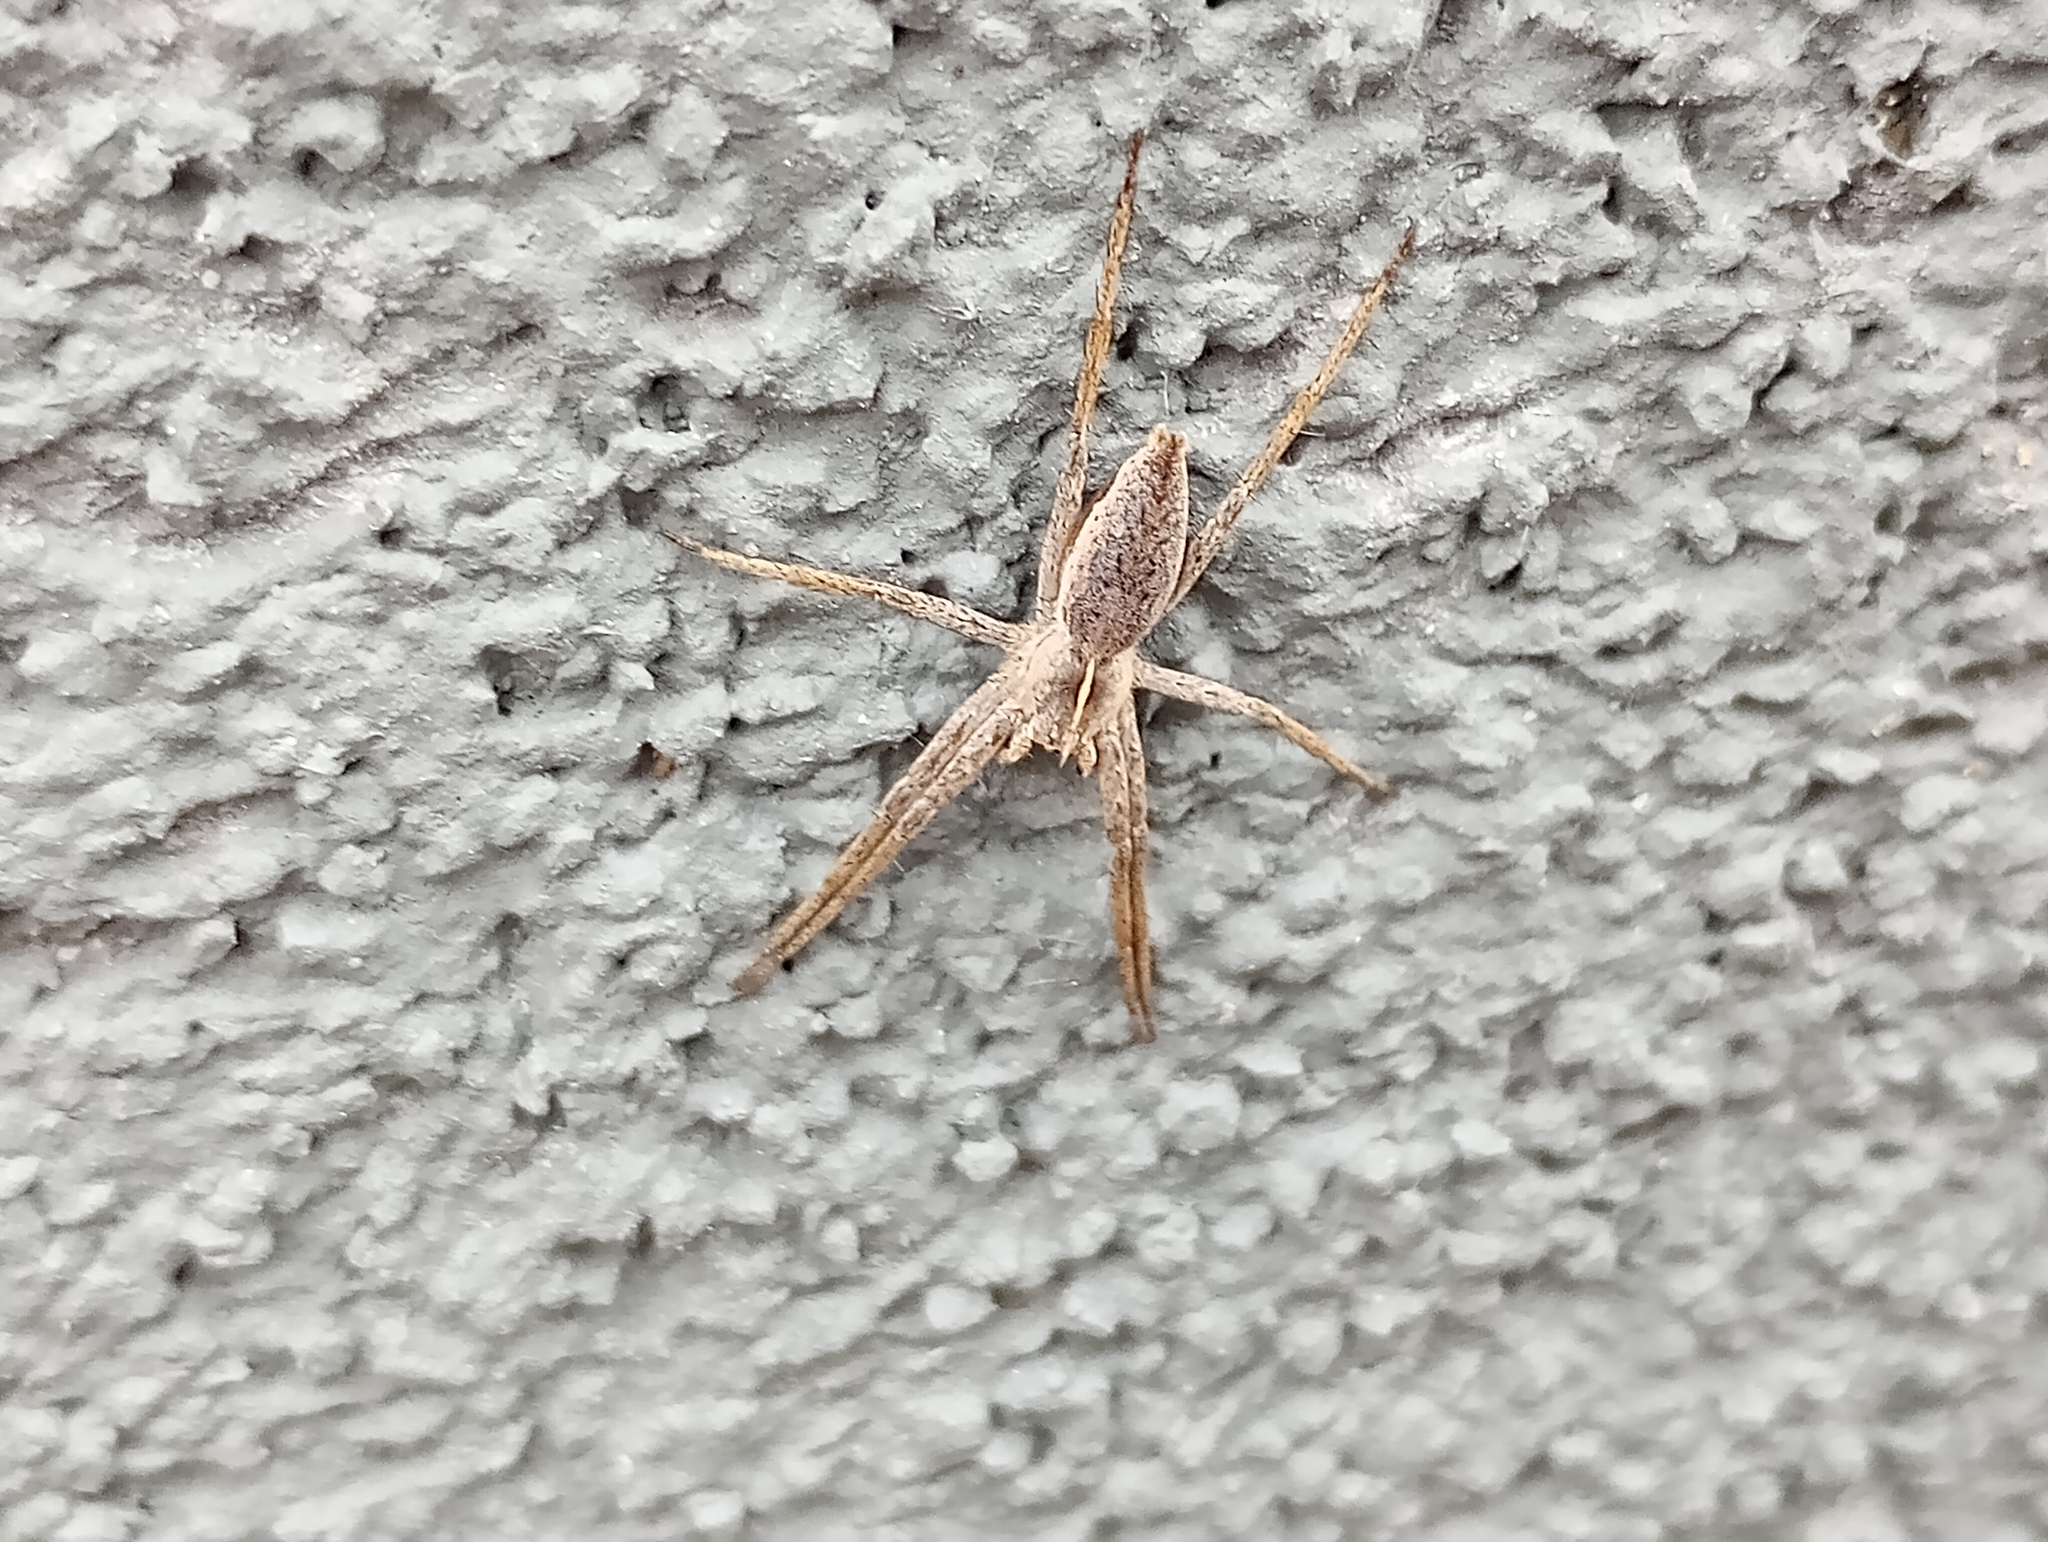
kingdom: Animalia
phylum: Arthropoda
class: Arachnida
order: Araneae
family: Pisauridae
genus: Pisaura
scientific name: Pisaura mirabilis
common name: Tent spider
